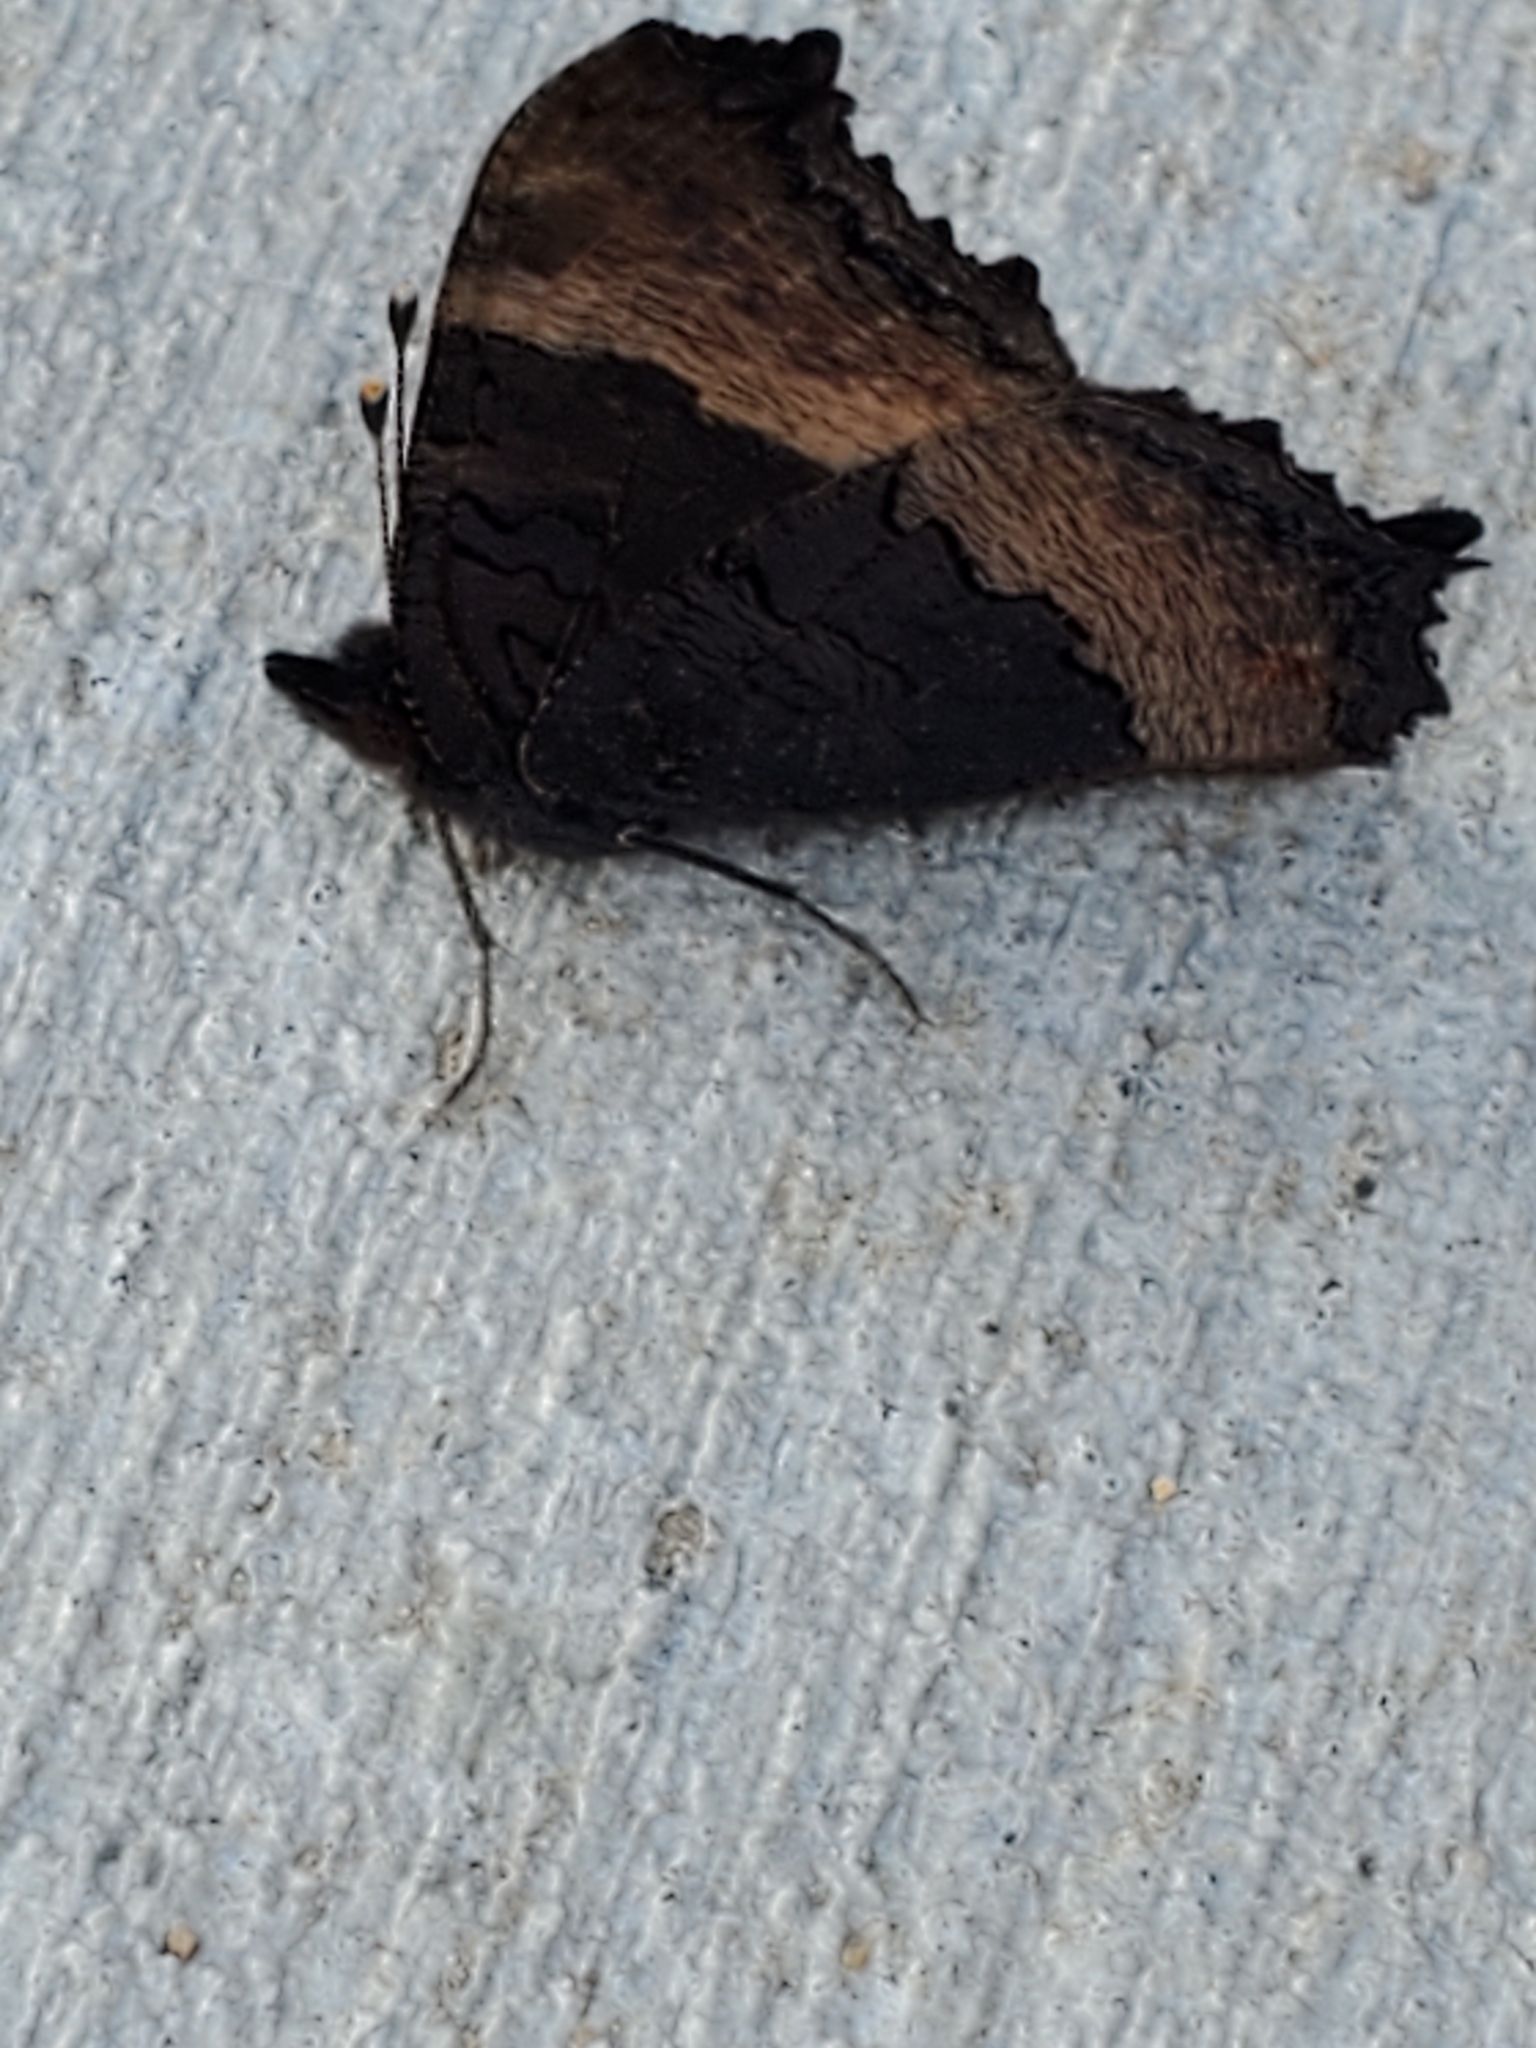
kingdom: Animalia
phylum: Arthropoda
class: Insecta
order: Lepidoptera
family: Nymphalidae
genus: Aglais
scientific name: Aglais milberti
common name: Milbert's tortoiseshell
